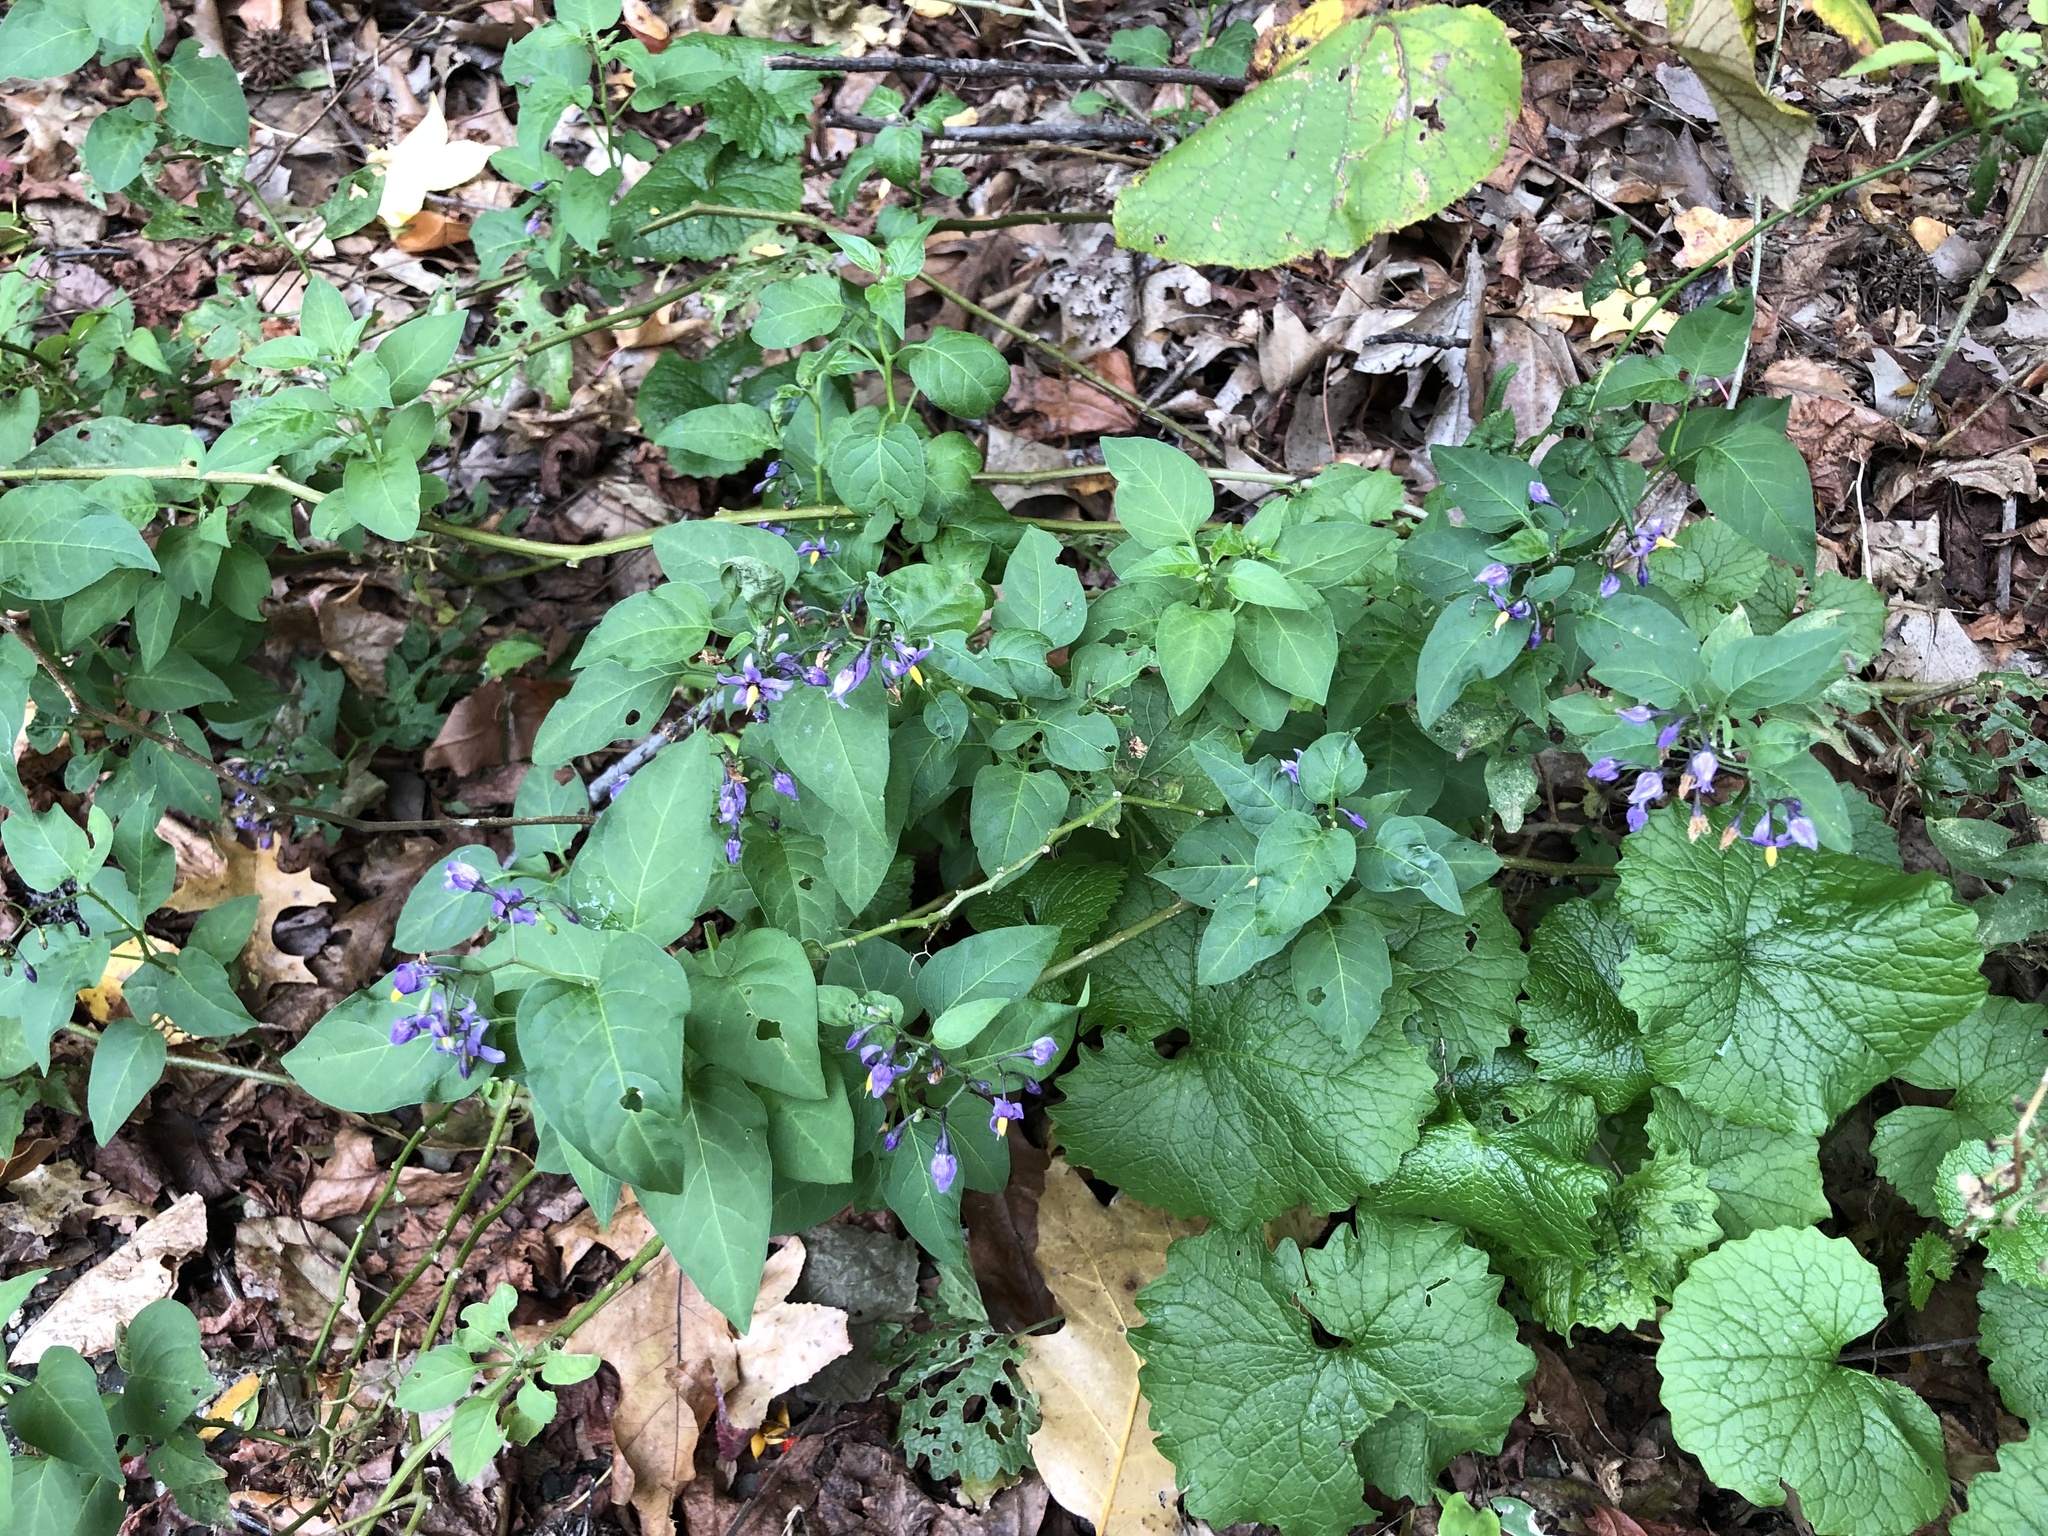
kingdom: Plantae
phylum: Tracheophyta
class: Magnoliopsida
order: Solanales
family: Solanaceae
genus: Solanum
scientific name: Solanum dulcamara
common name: Climbing nightshade
